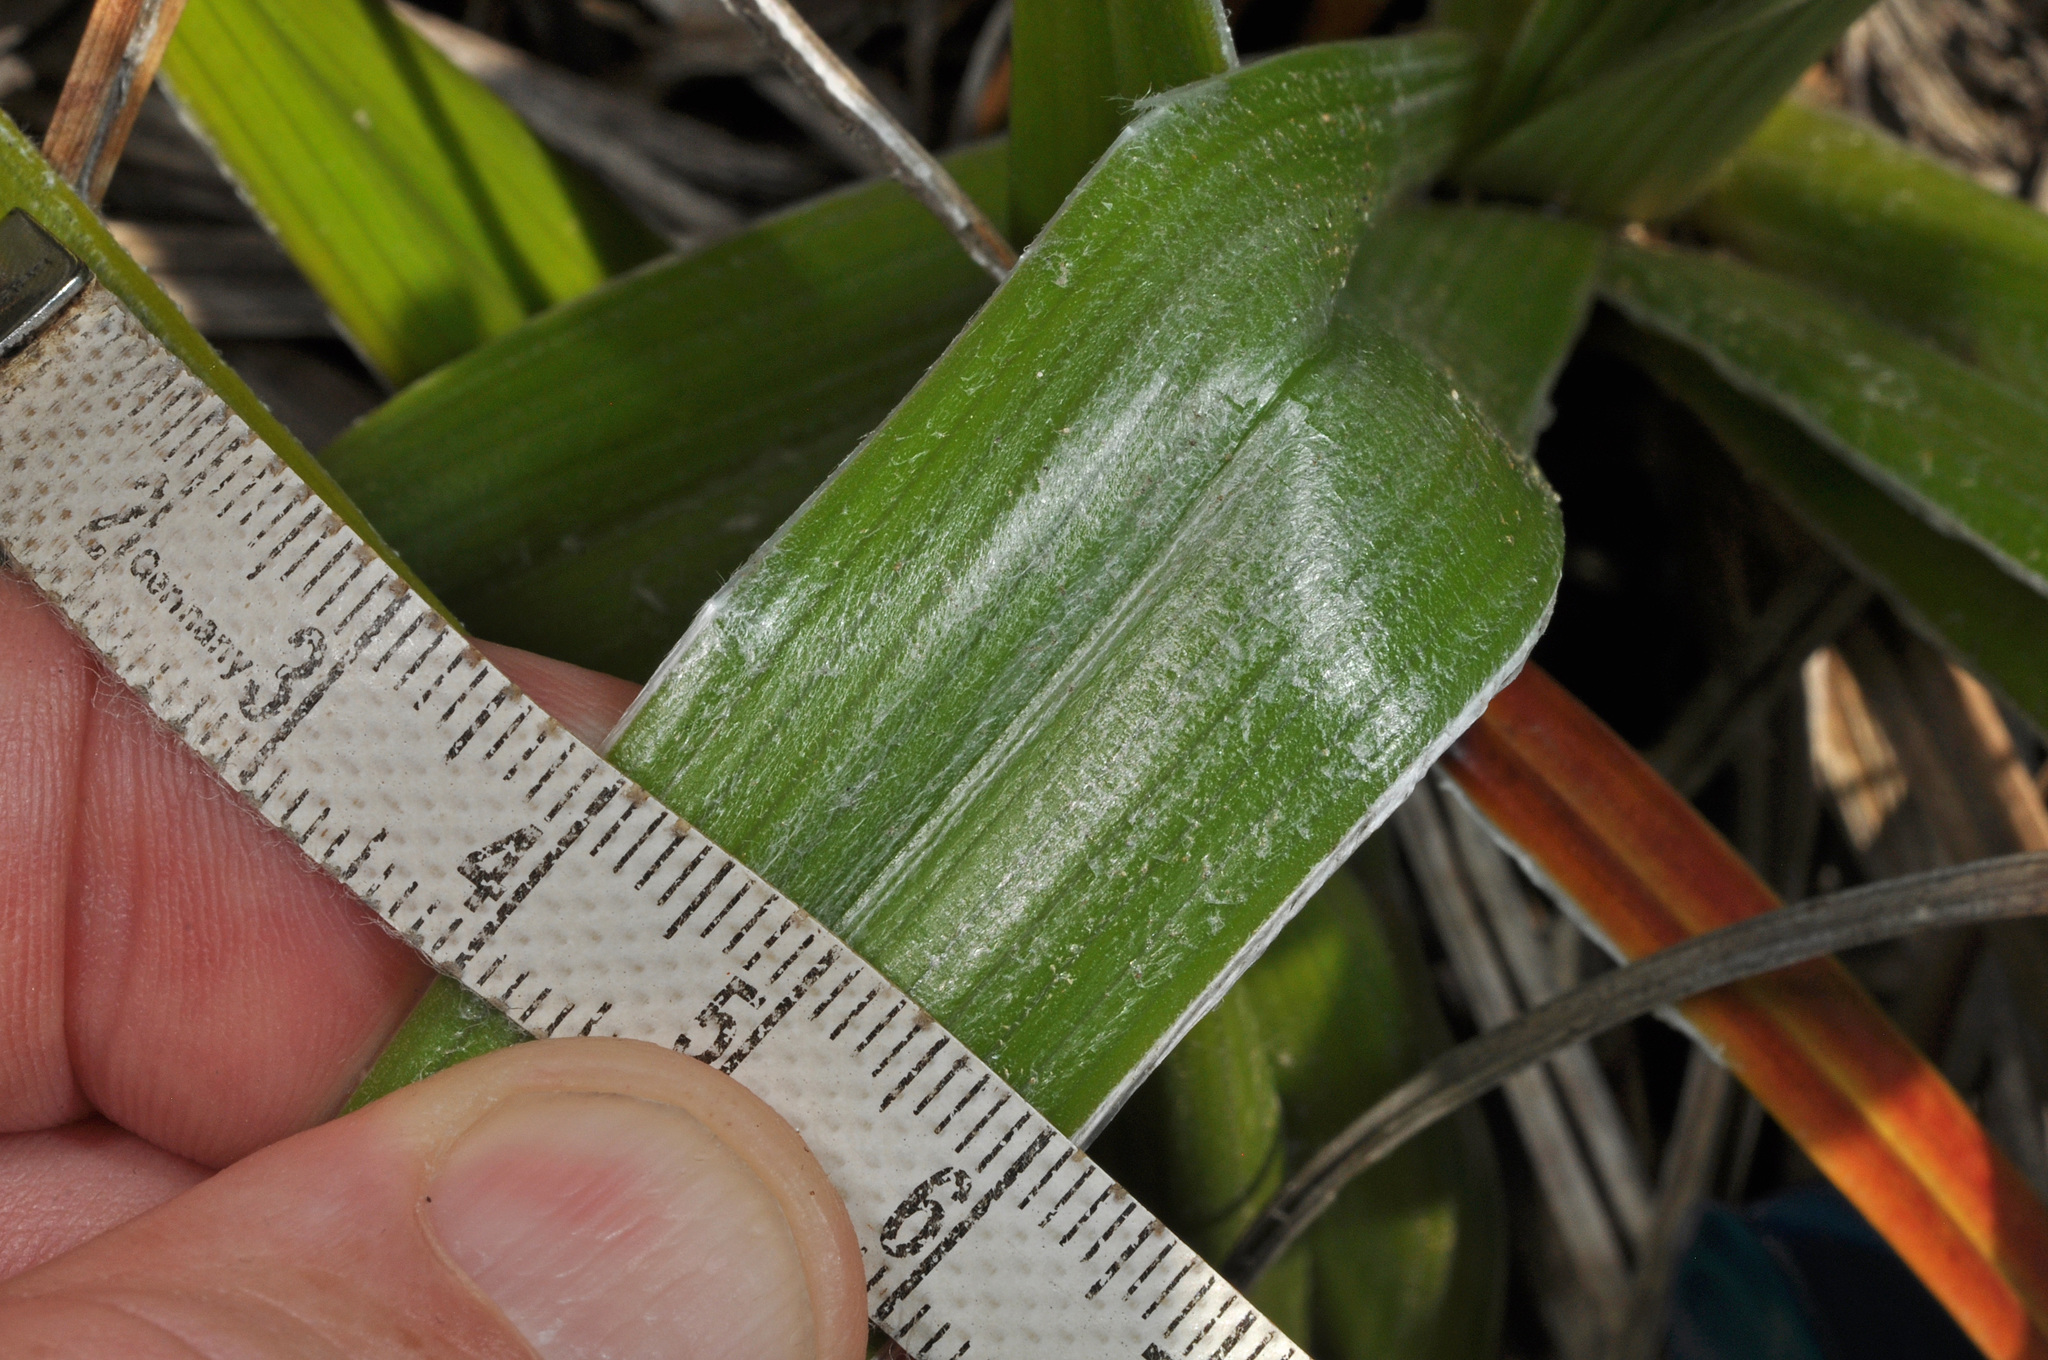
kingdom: Plantae
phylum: Tracheophyta
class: Liliopsida
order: Asparagales
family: Asteliaceae
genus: Astelia
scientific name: Astelia banksii
